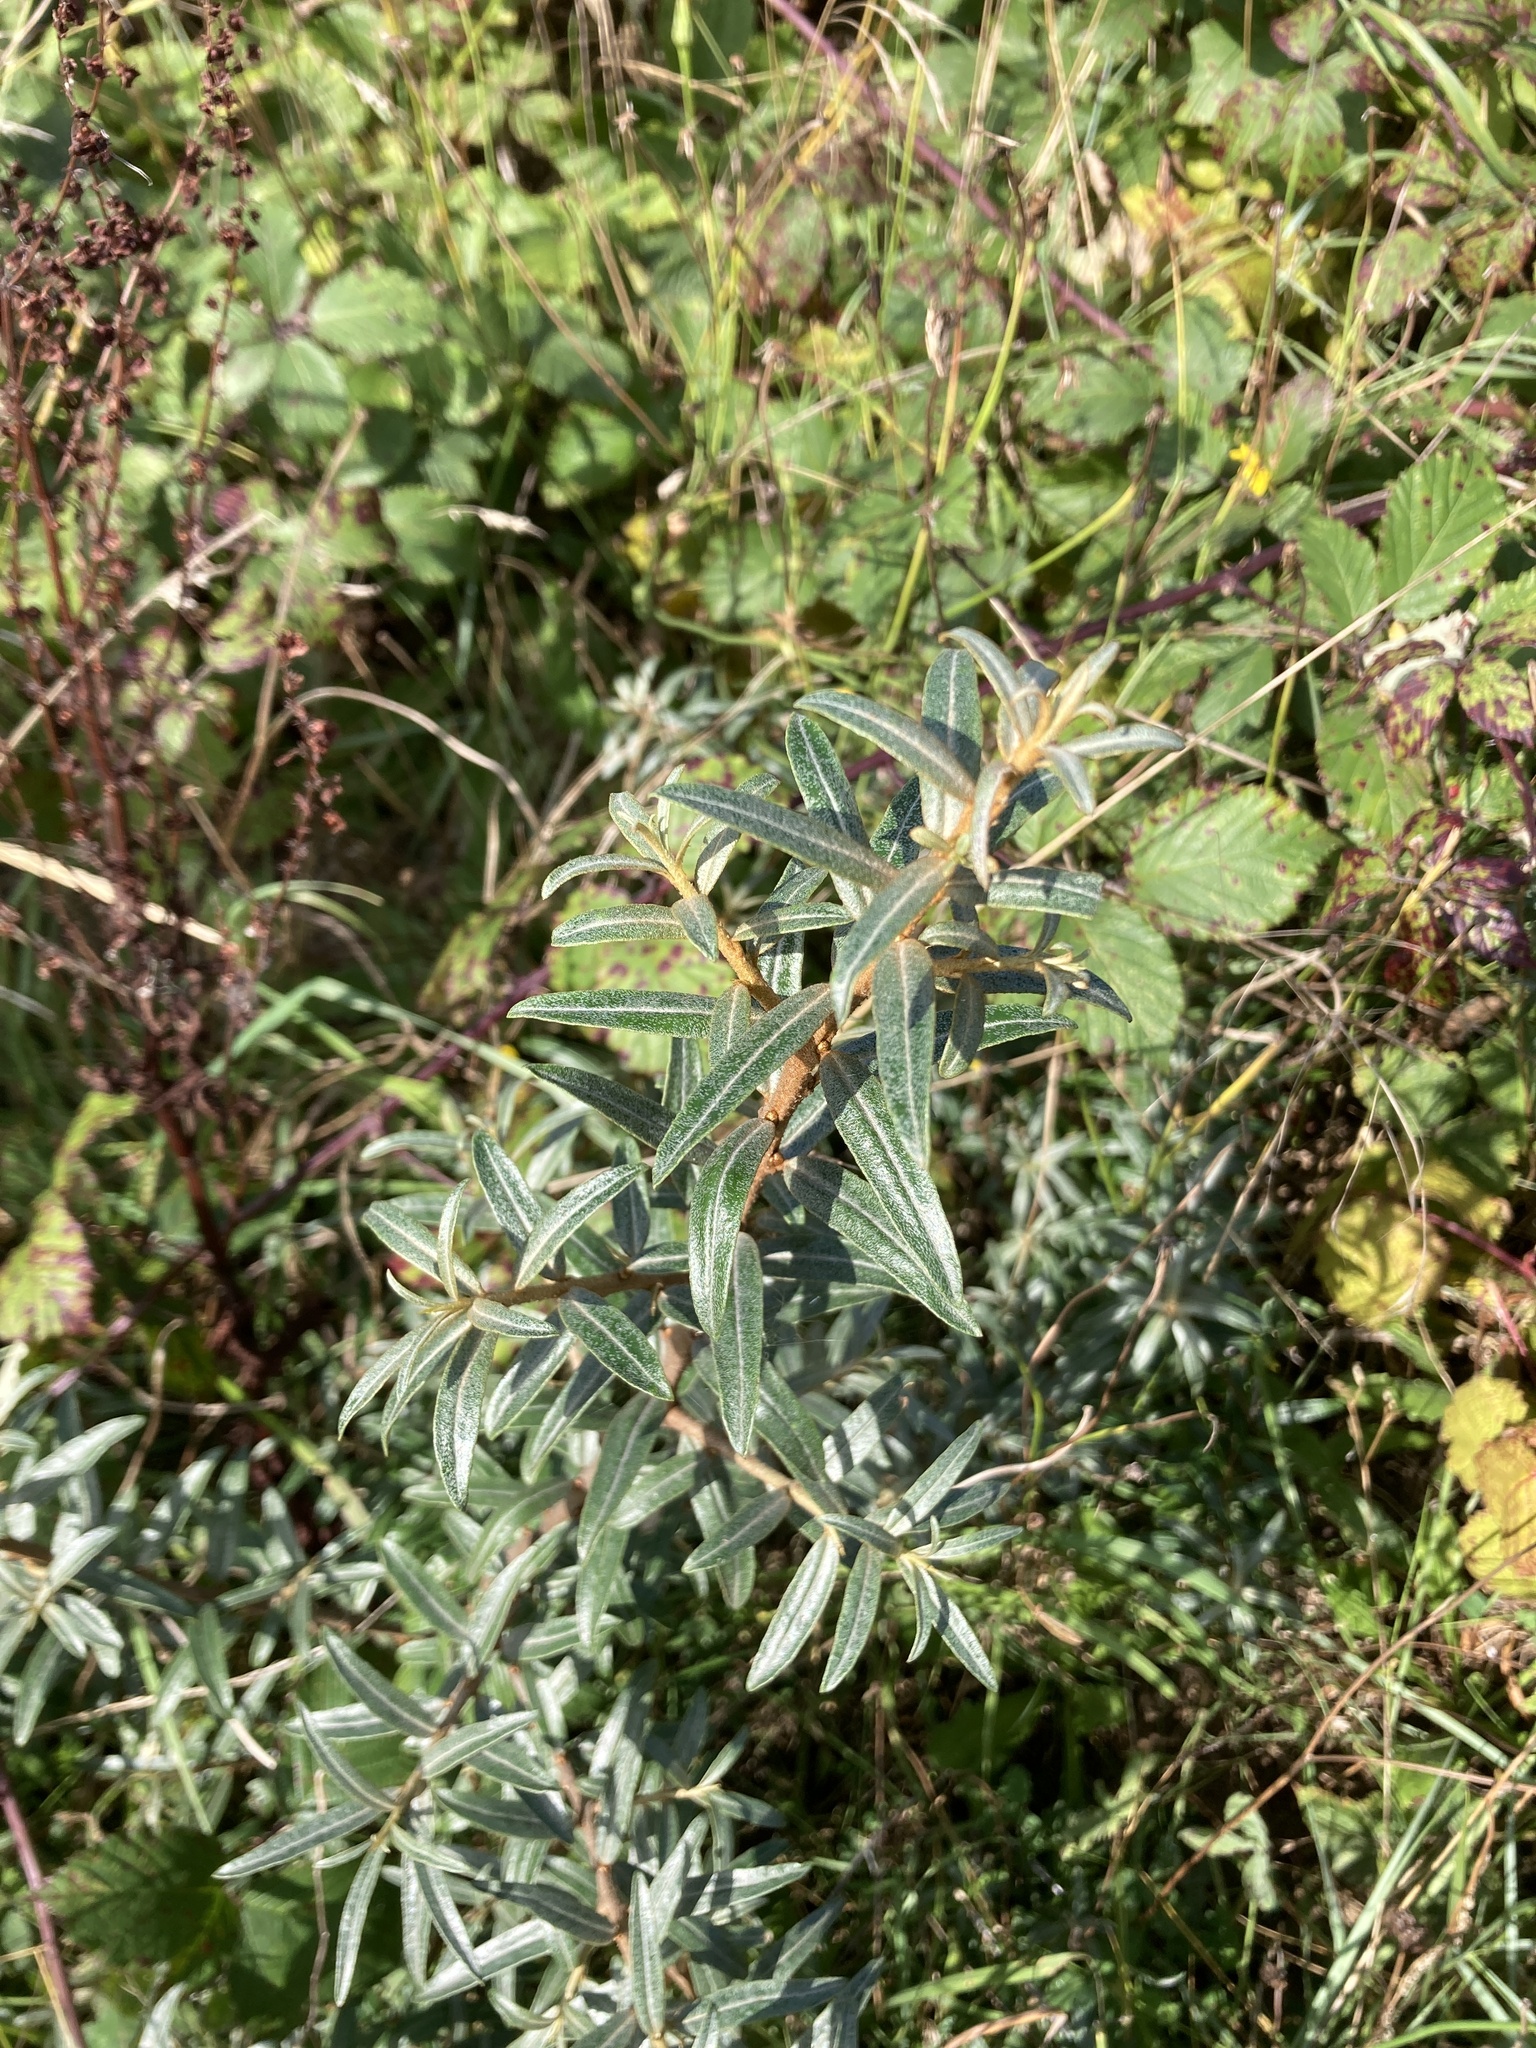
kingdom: Plantae
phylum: Tracheophyta
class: Magnoliopsida
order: Rosales
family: Elaeagnaceae
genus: Hippophae
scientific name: Hippophae rhamnoides
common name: Sea-buckthorn
